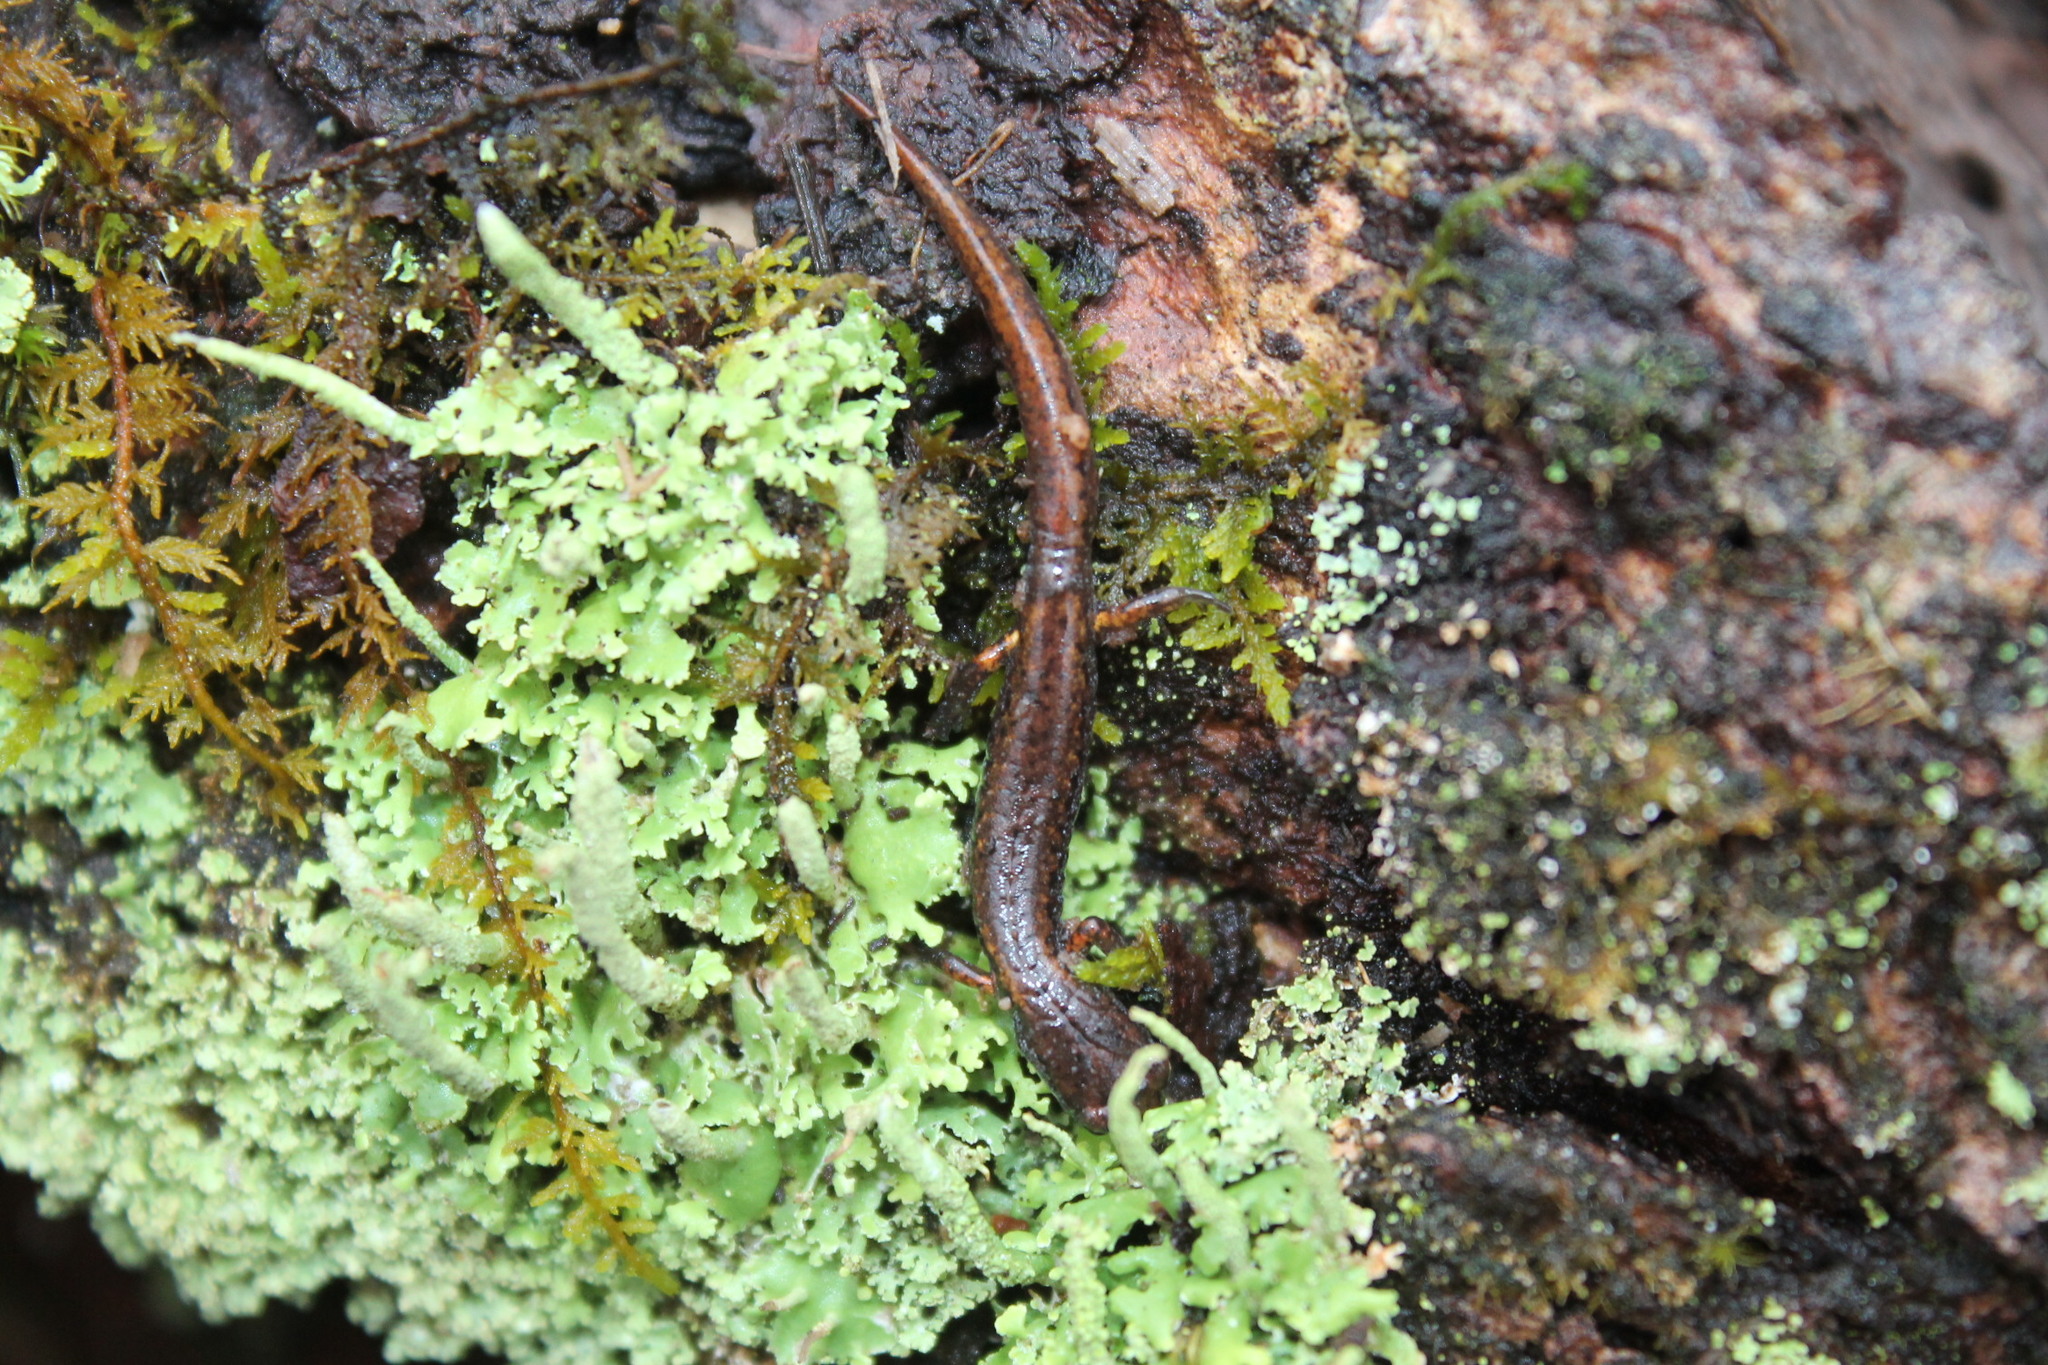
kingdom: Fungi
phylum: Ascomycota
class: Lecanoromycetes
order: Lecanorales
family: Cladoniaceae
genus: Cladonia
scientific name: Cladonia coniocraea
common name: Common powderhorn
